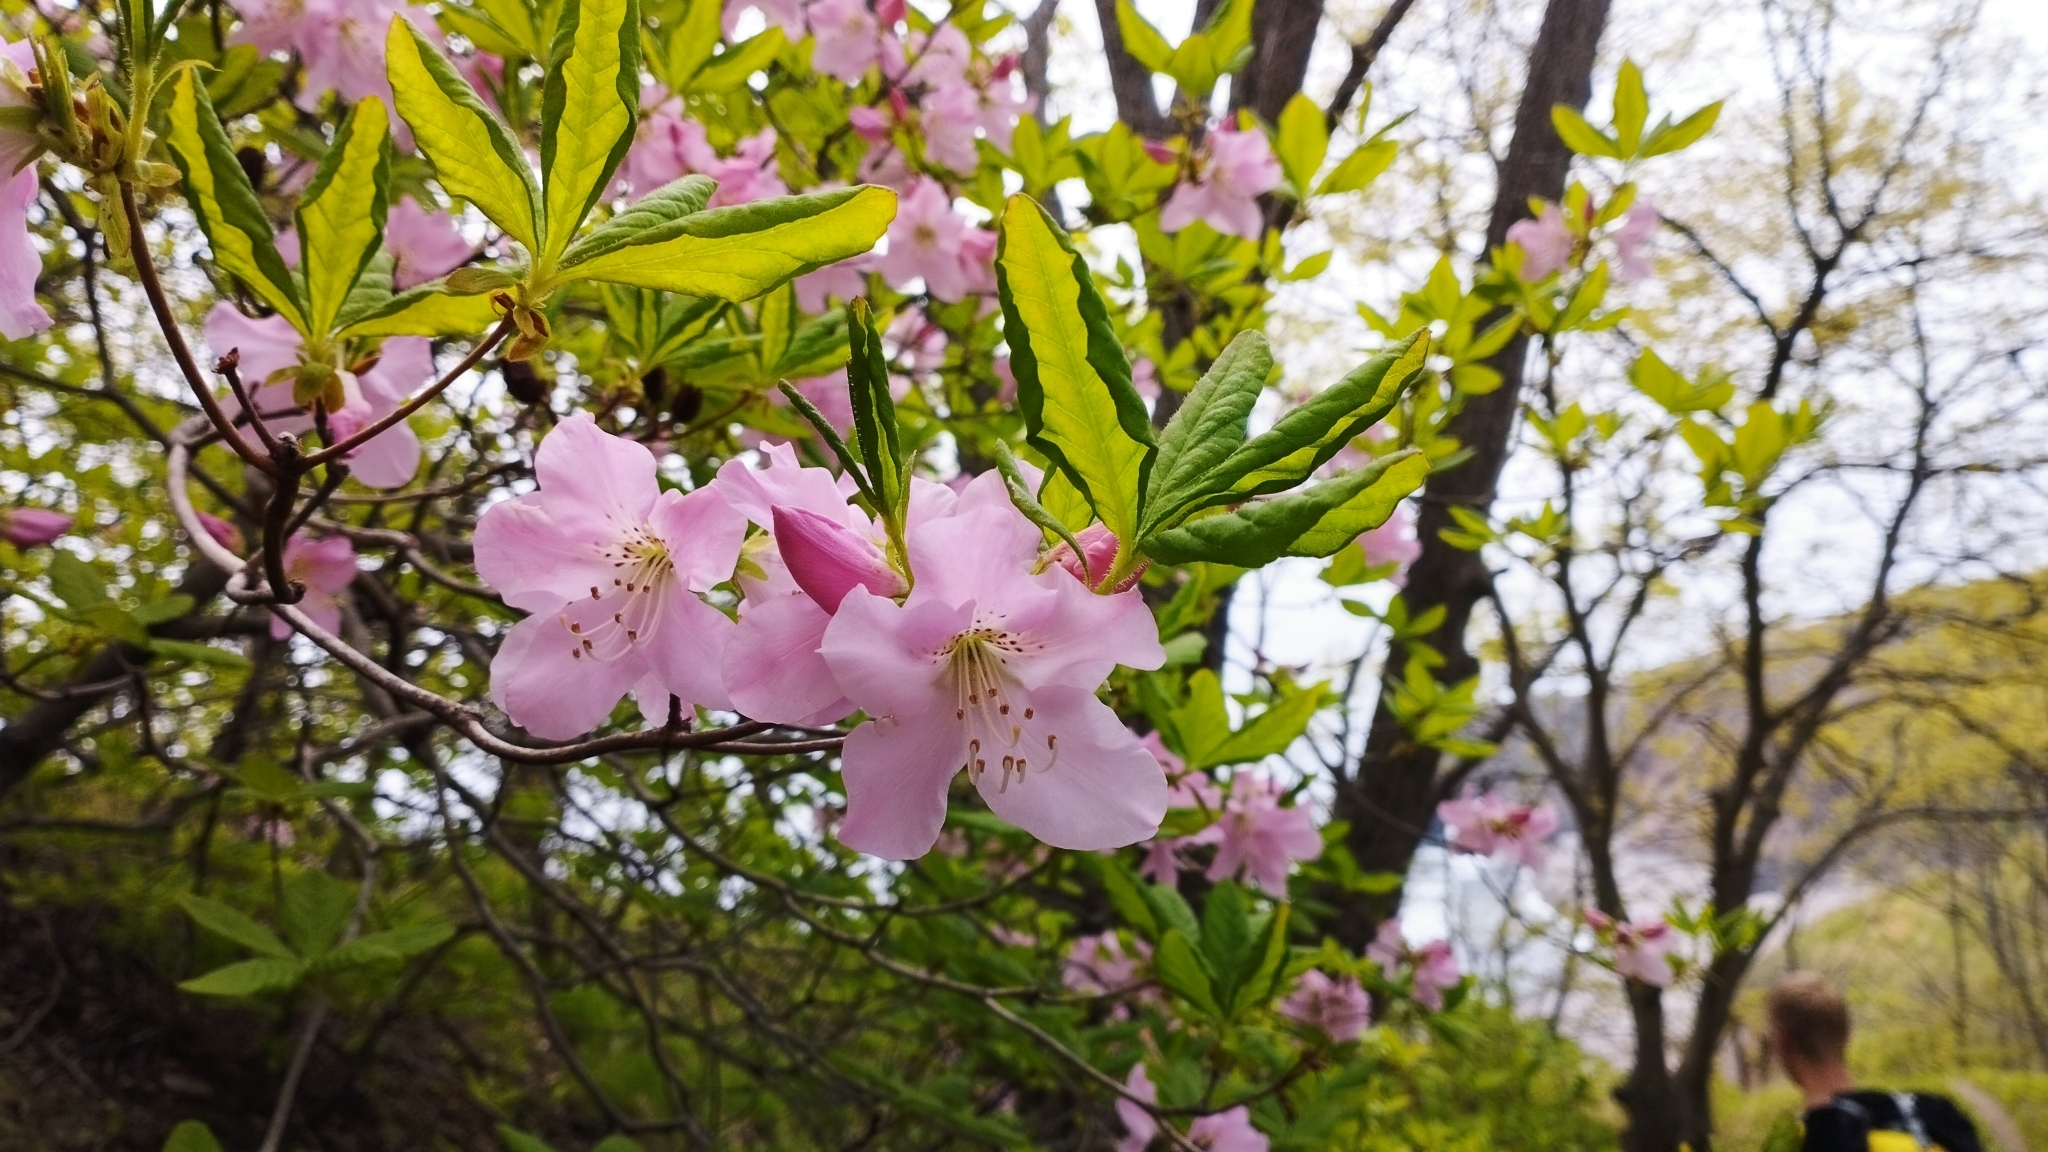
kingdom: Plantae
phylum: Tracheophyta
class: Magnoliopsida
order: Ericales
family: Ericaceae
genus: Rhododendron
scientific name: Rhododendron schlippenbachii
